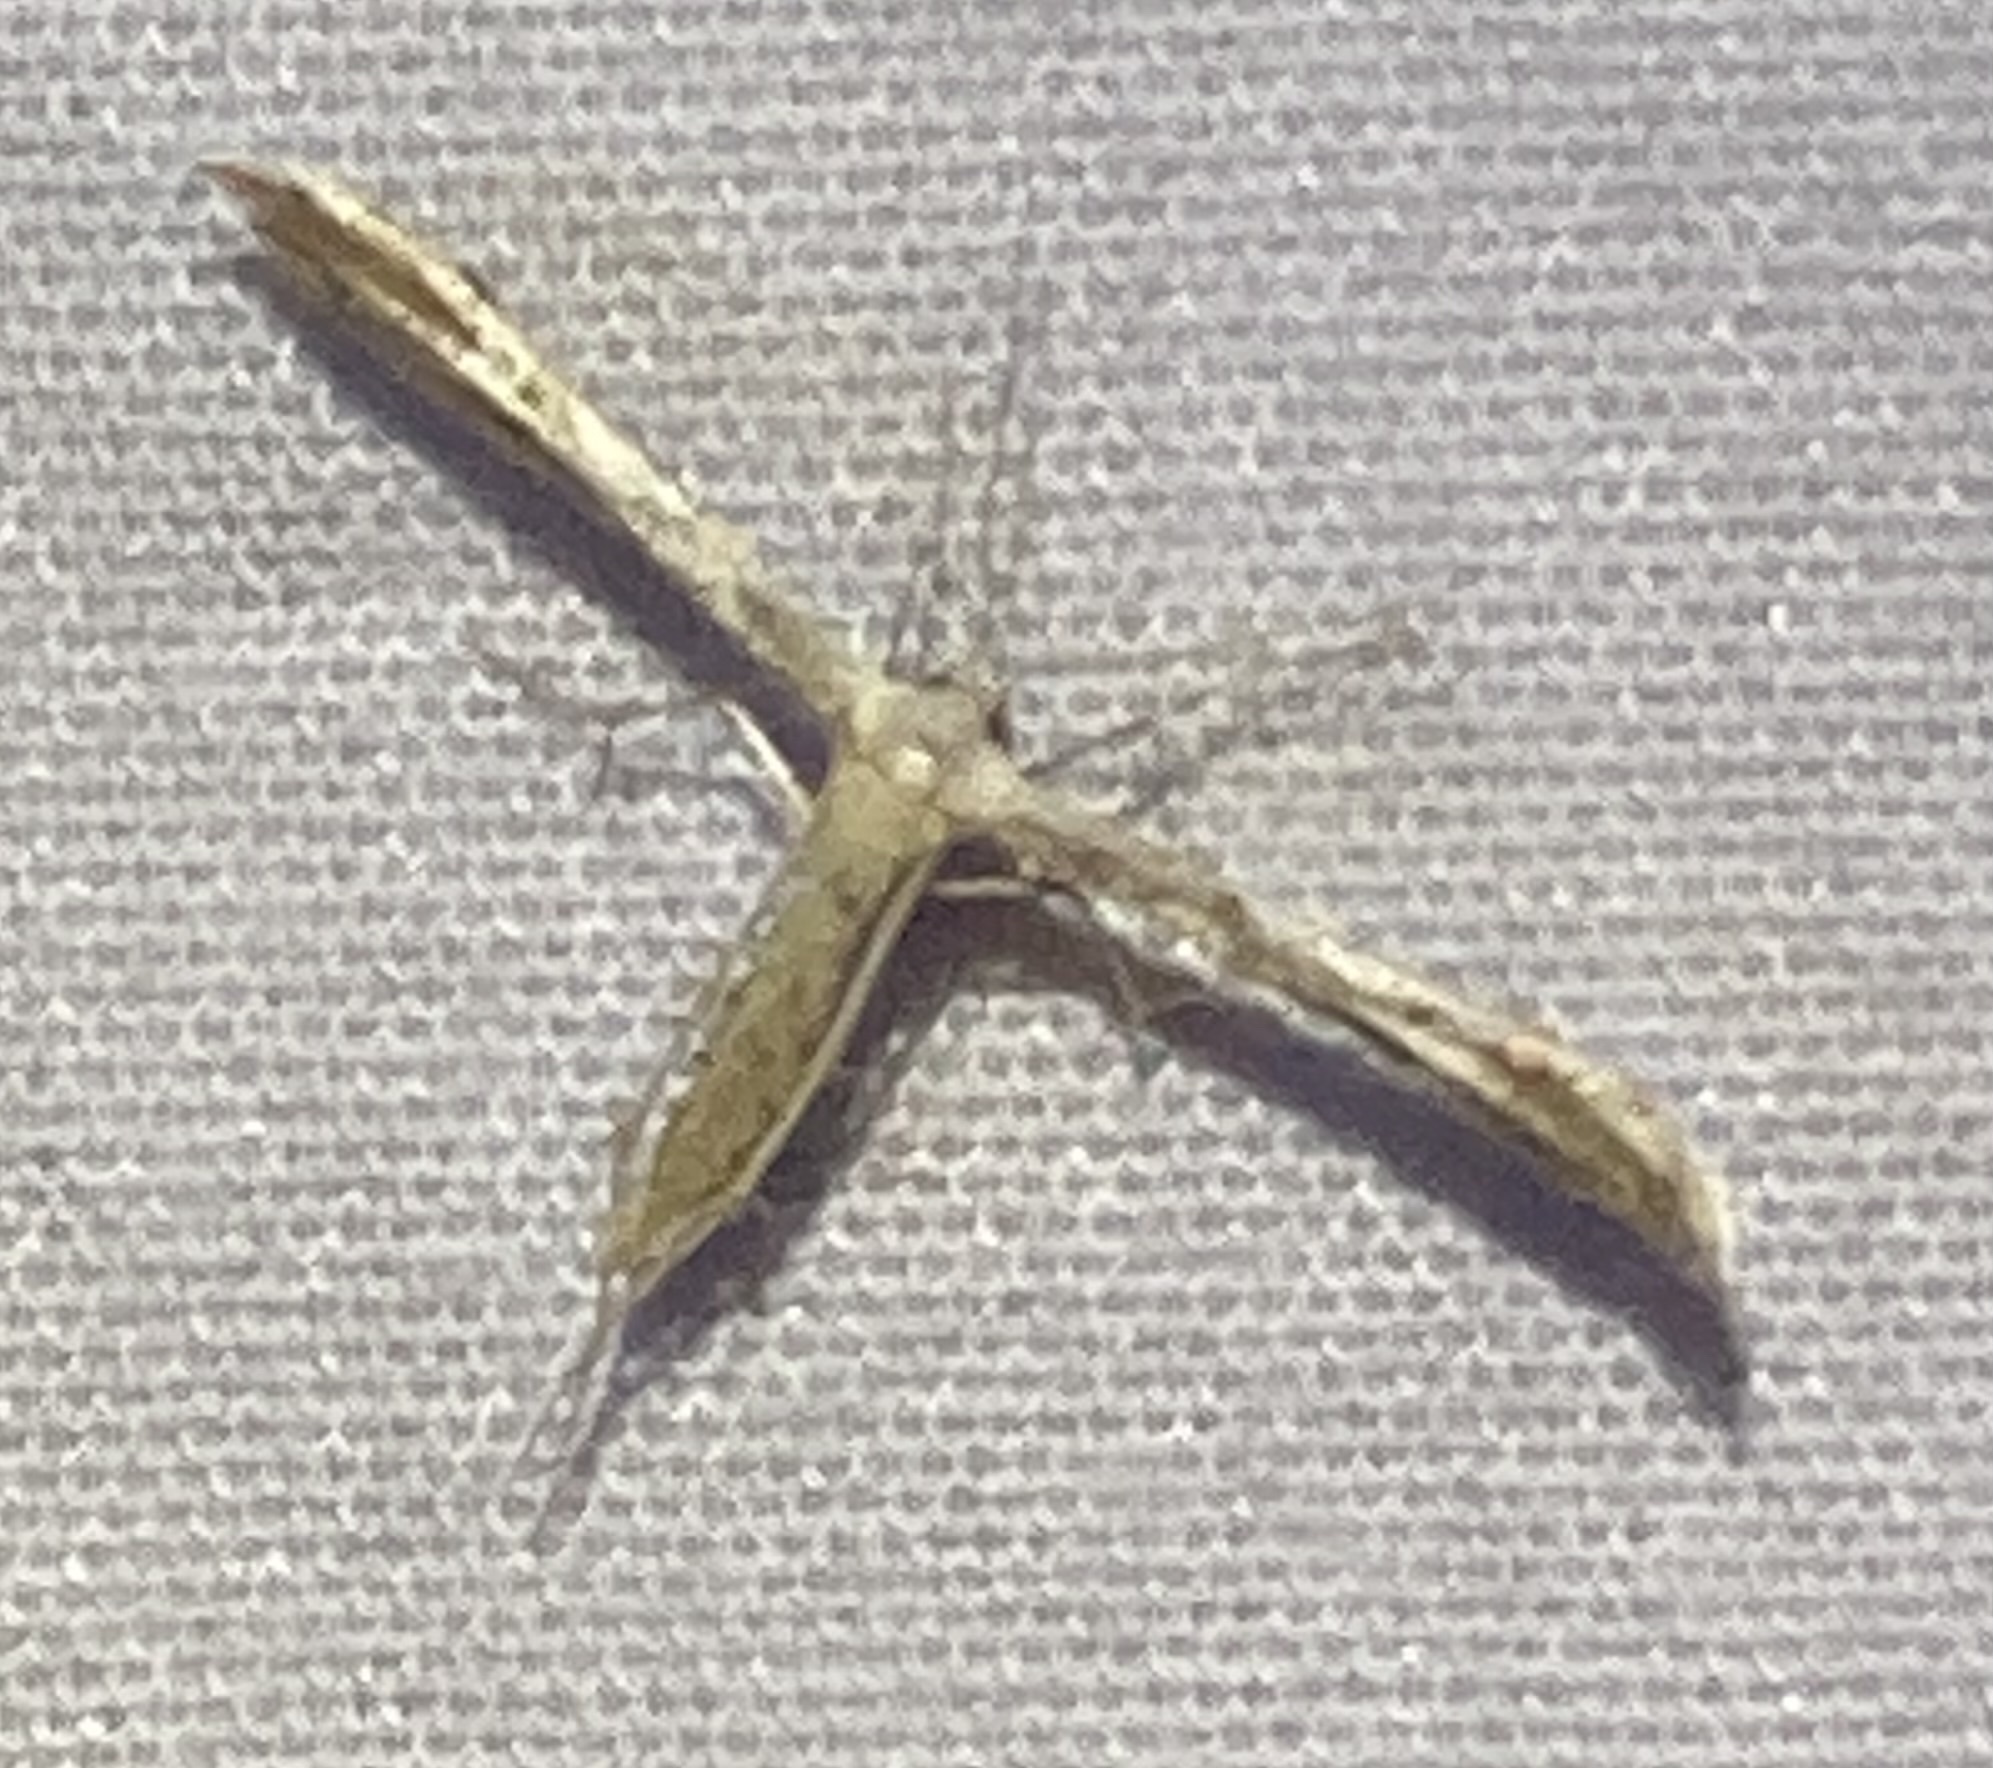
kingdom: Animalia
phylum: Arthropoda
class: Insecta
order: Lepidoptera
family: Pterophoridae
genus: Pselnophorus
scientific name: Pselnophorus belfragei
